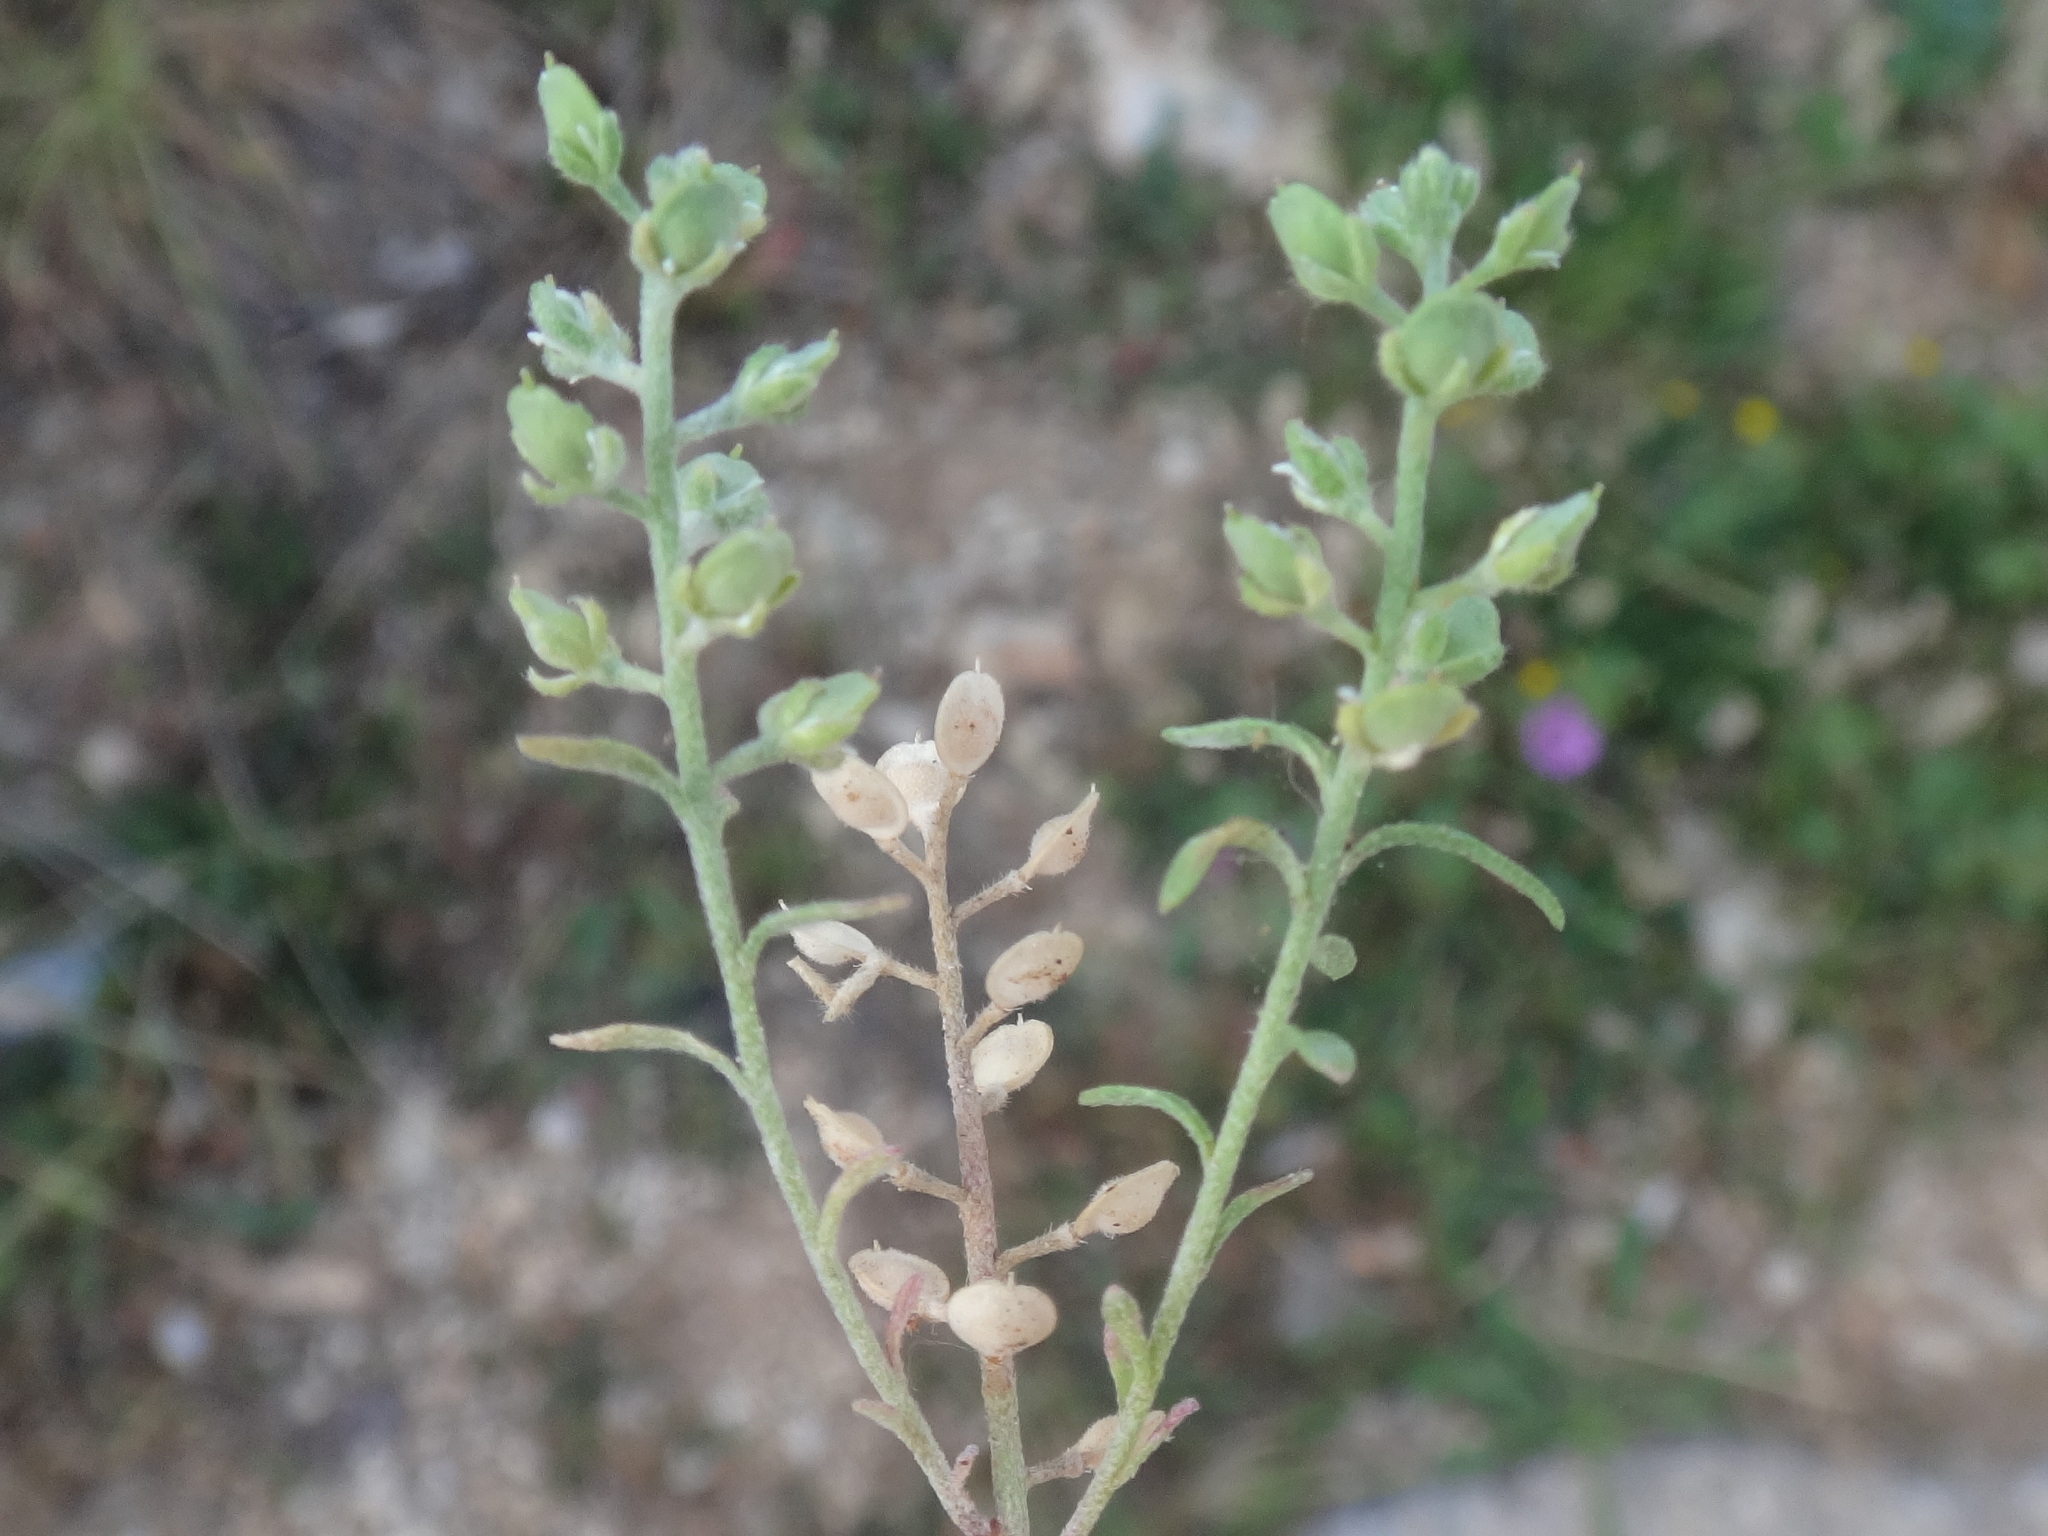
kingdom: Plantae
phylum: Tracheophyta
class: Magnoliopsida
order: Brassicales
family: Brassicaceae
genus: Alyssum
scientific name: Alyssum alyssoides
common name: Small alison
